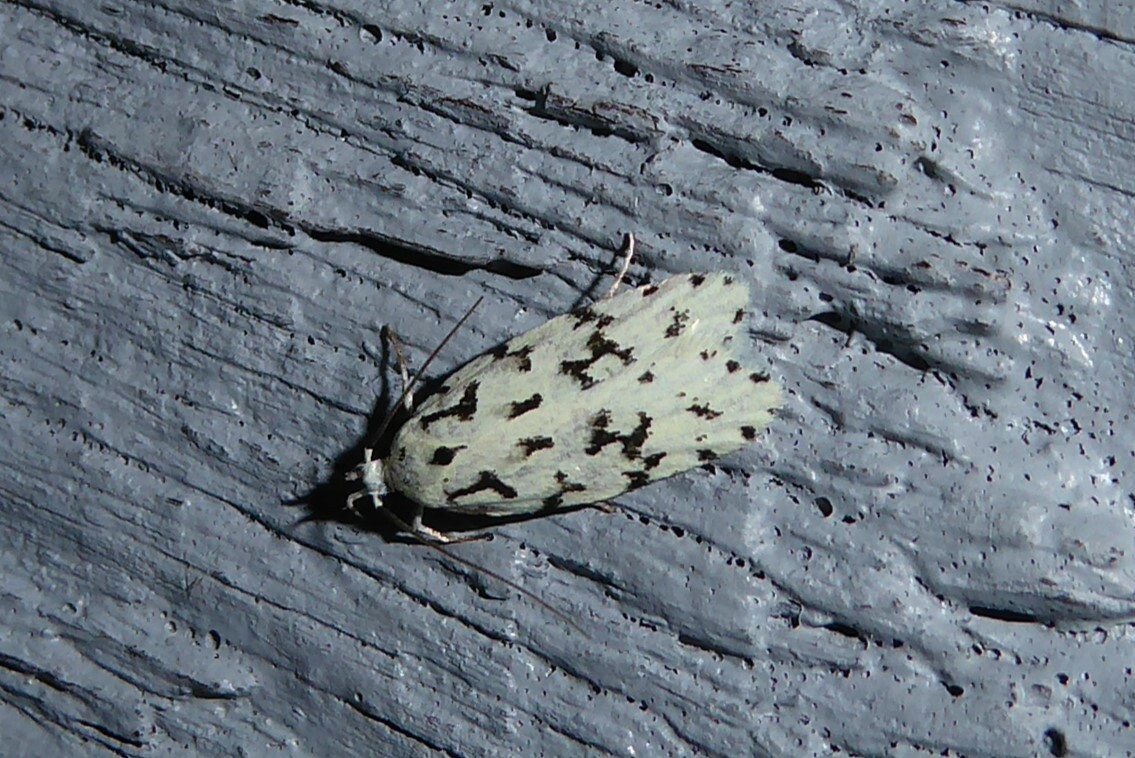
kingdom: Animalia
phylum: Arthropoda
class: Insecta
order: Lepidoptera
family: Oecophoridae
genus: Izatha
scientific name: Izatha huttoni
